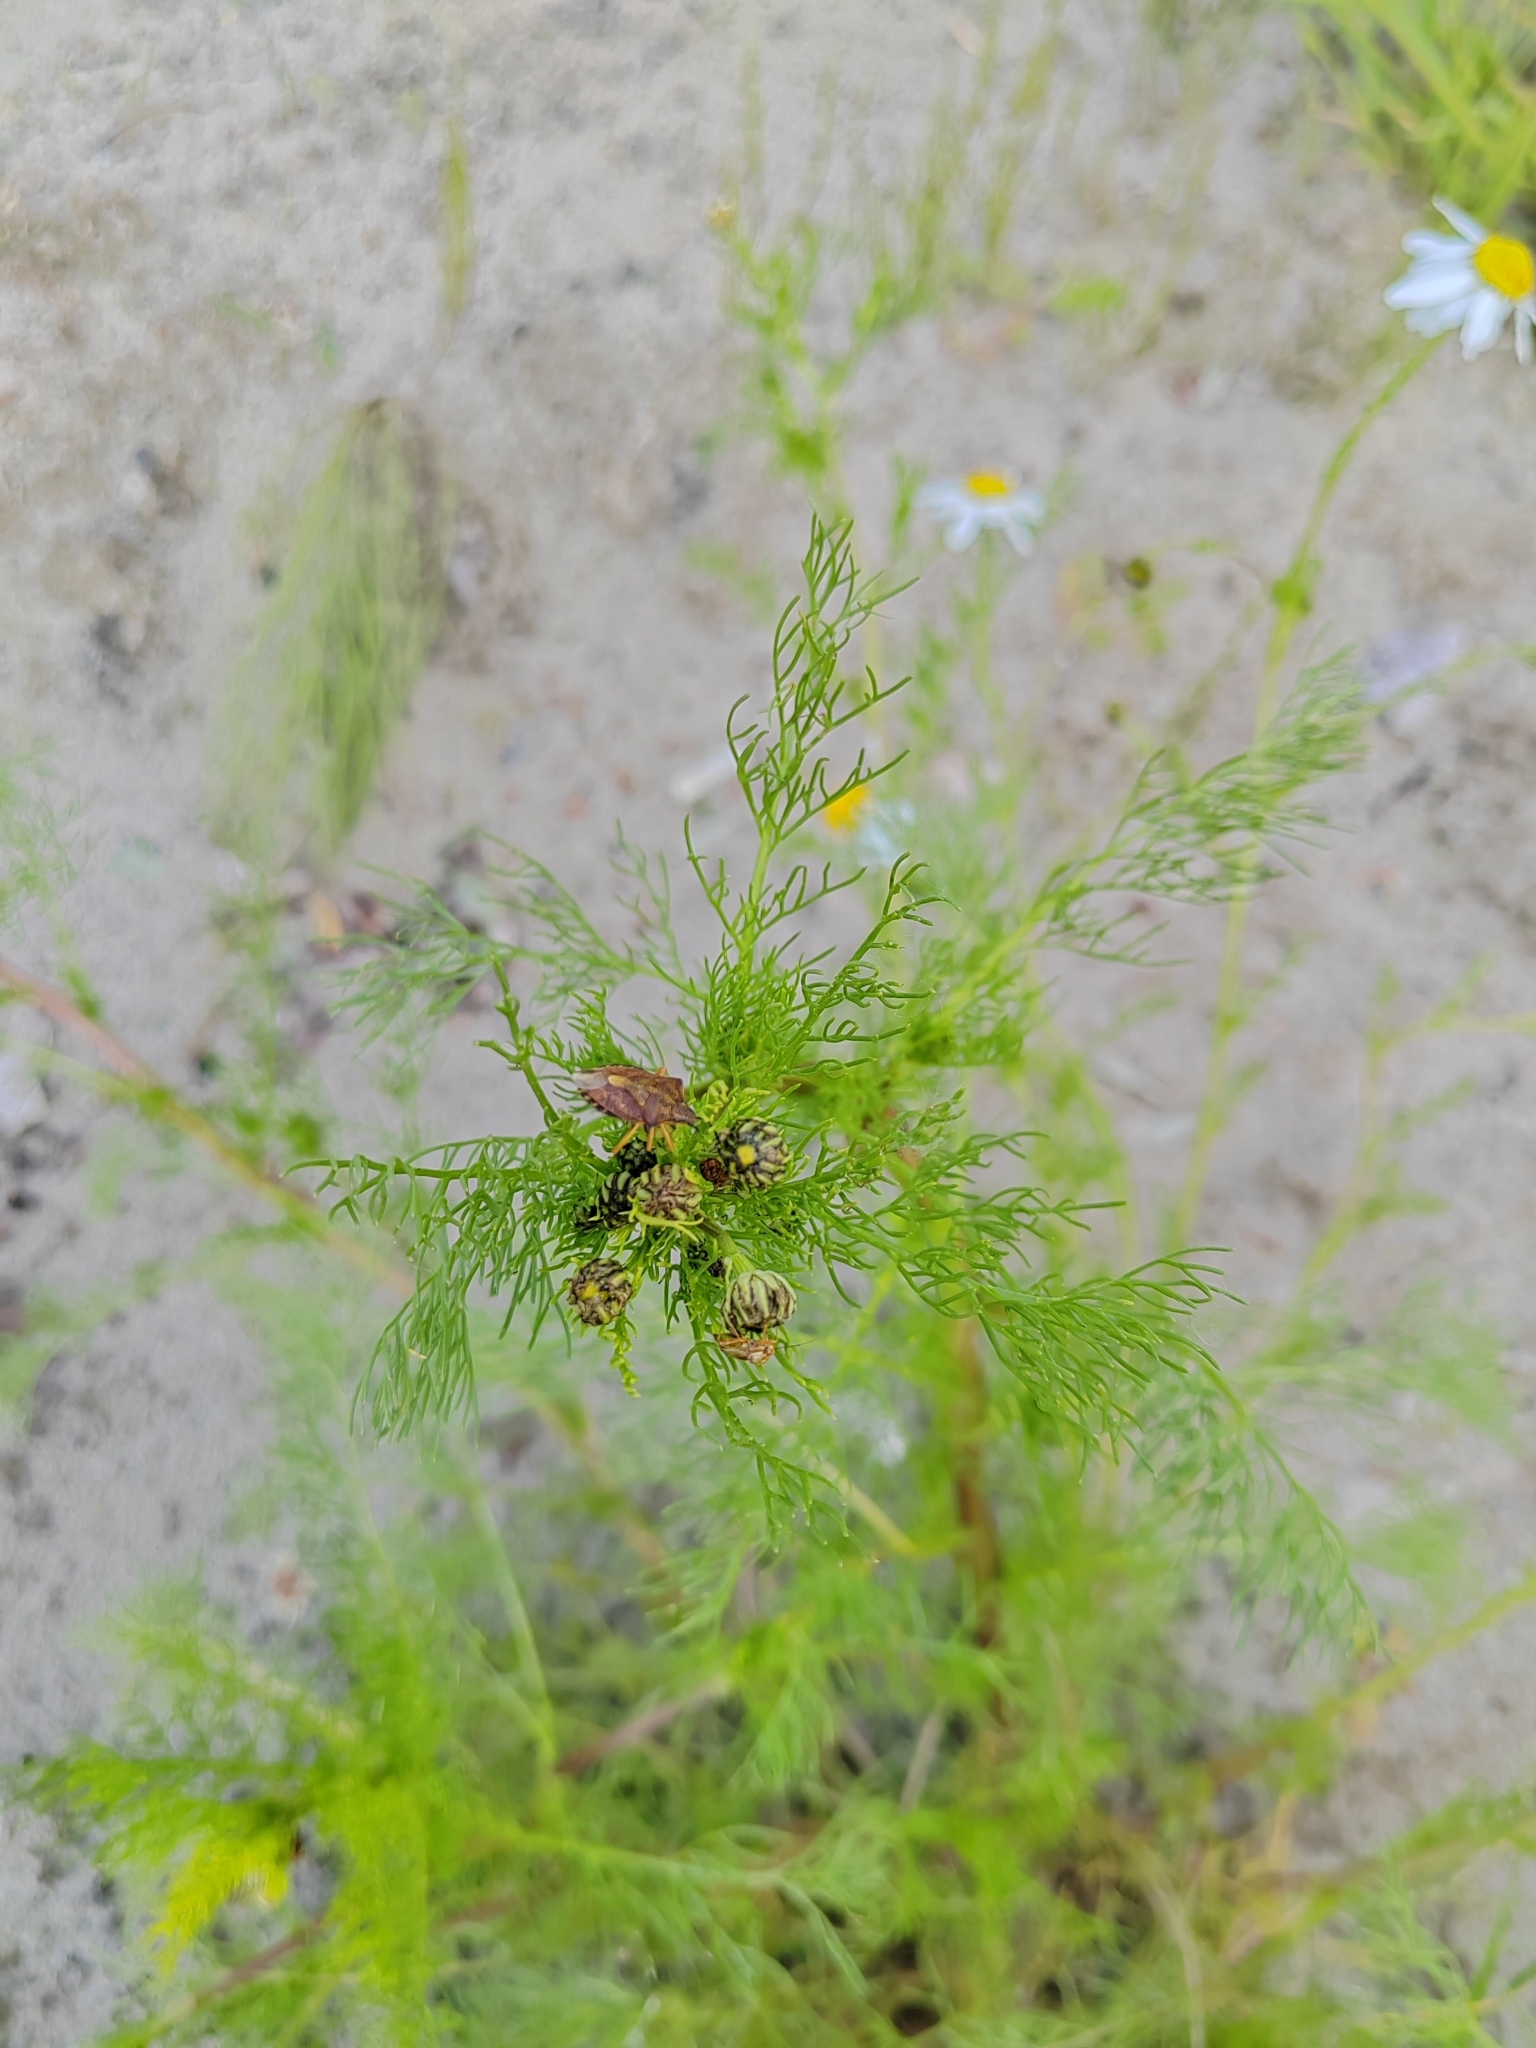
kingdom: Plantae
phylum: Tracheophyta
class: Magnoliopsida
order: Asterales
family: Asteraceae
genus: Tripleurospermum
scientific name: Tripleurospermum inodorum
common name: Scentless mayweed
